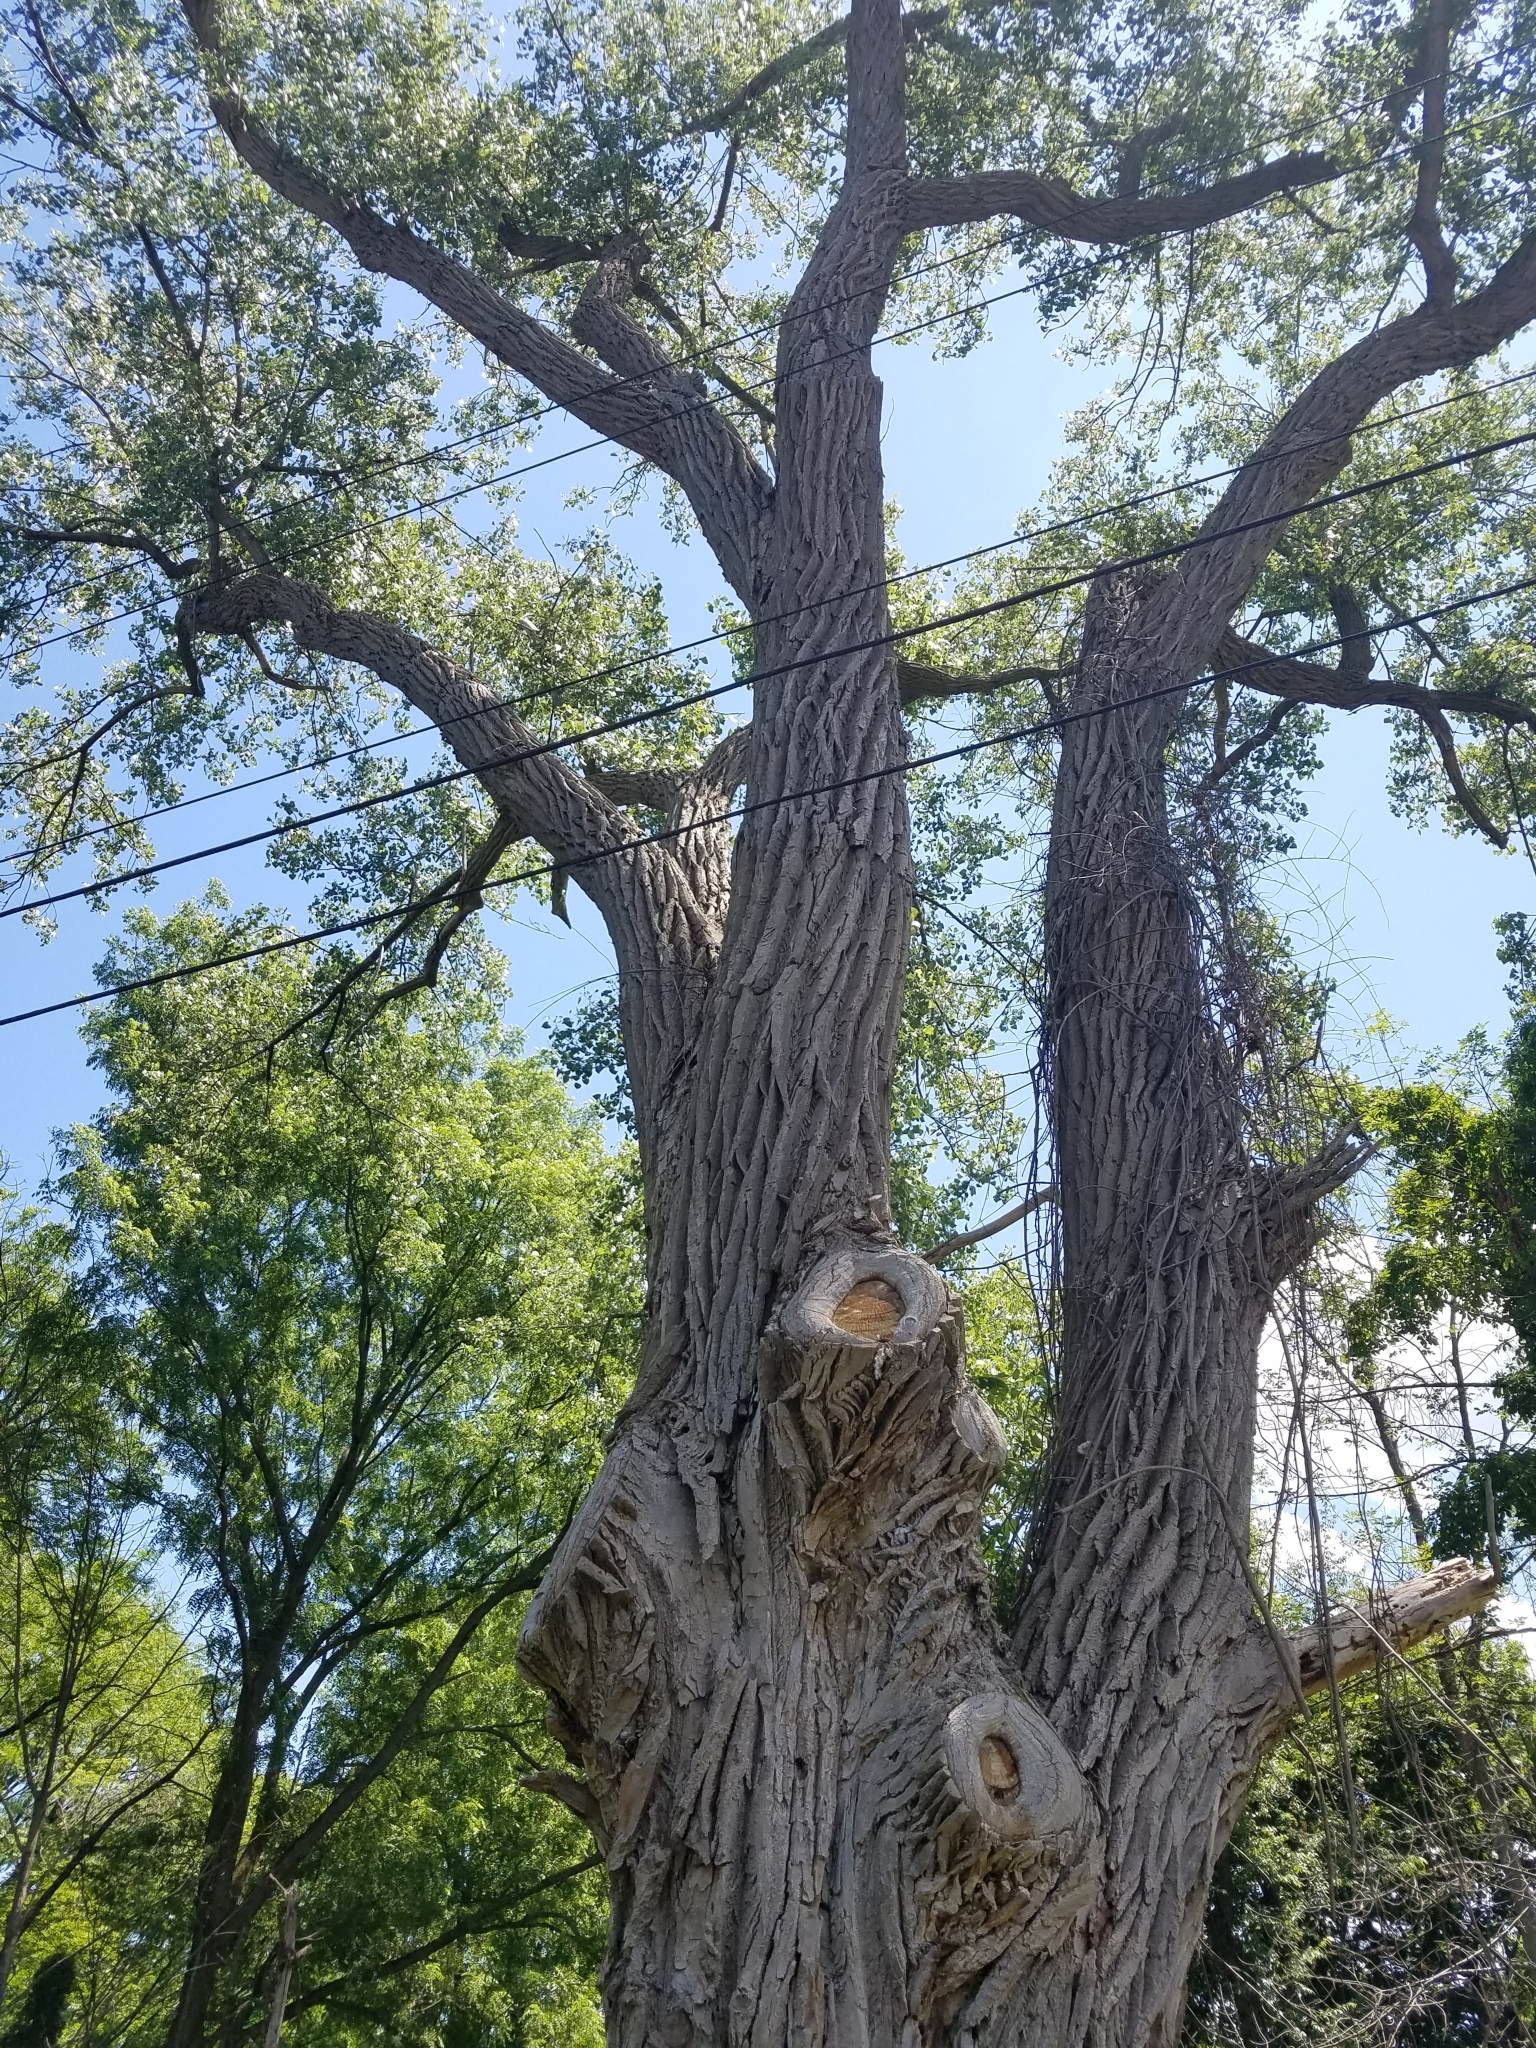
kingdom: Plantae
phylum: Tracheophyta
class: Magnoliopsida
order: Malpighiales
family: Salicaceae
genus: Populus
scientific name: Populus deltoides
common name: Eastern cottonwood
